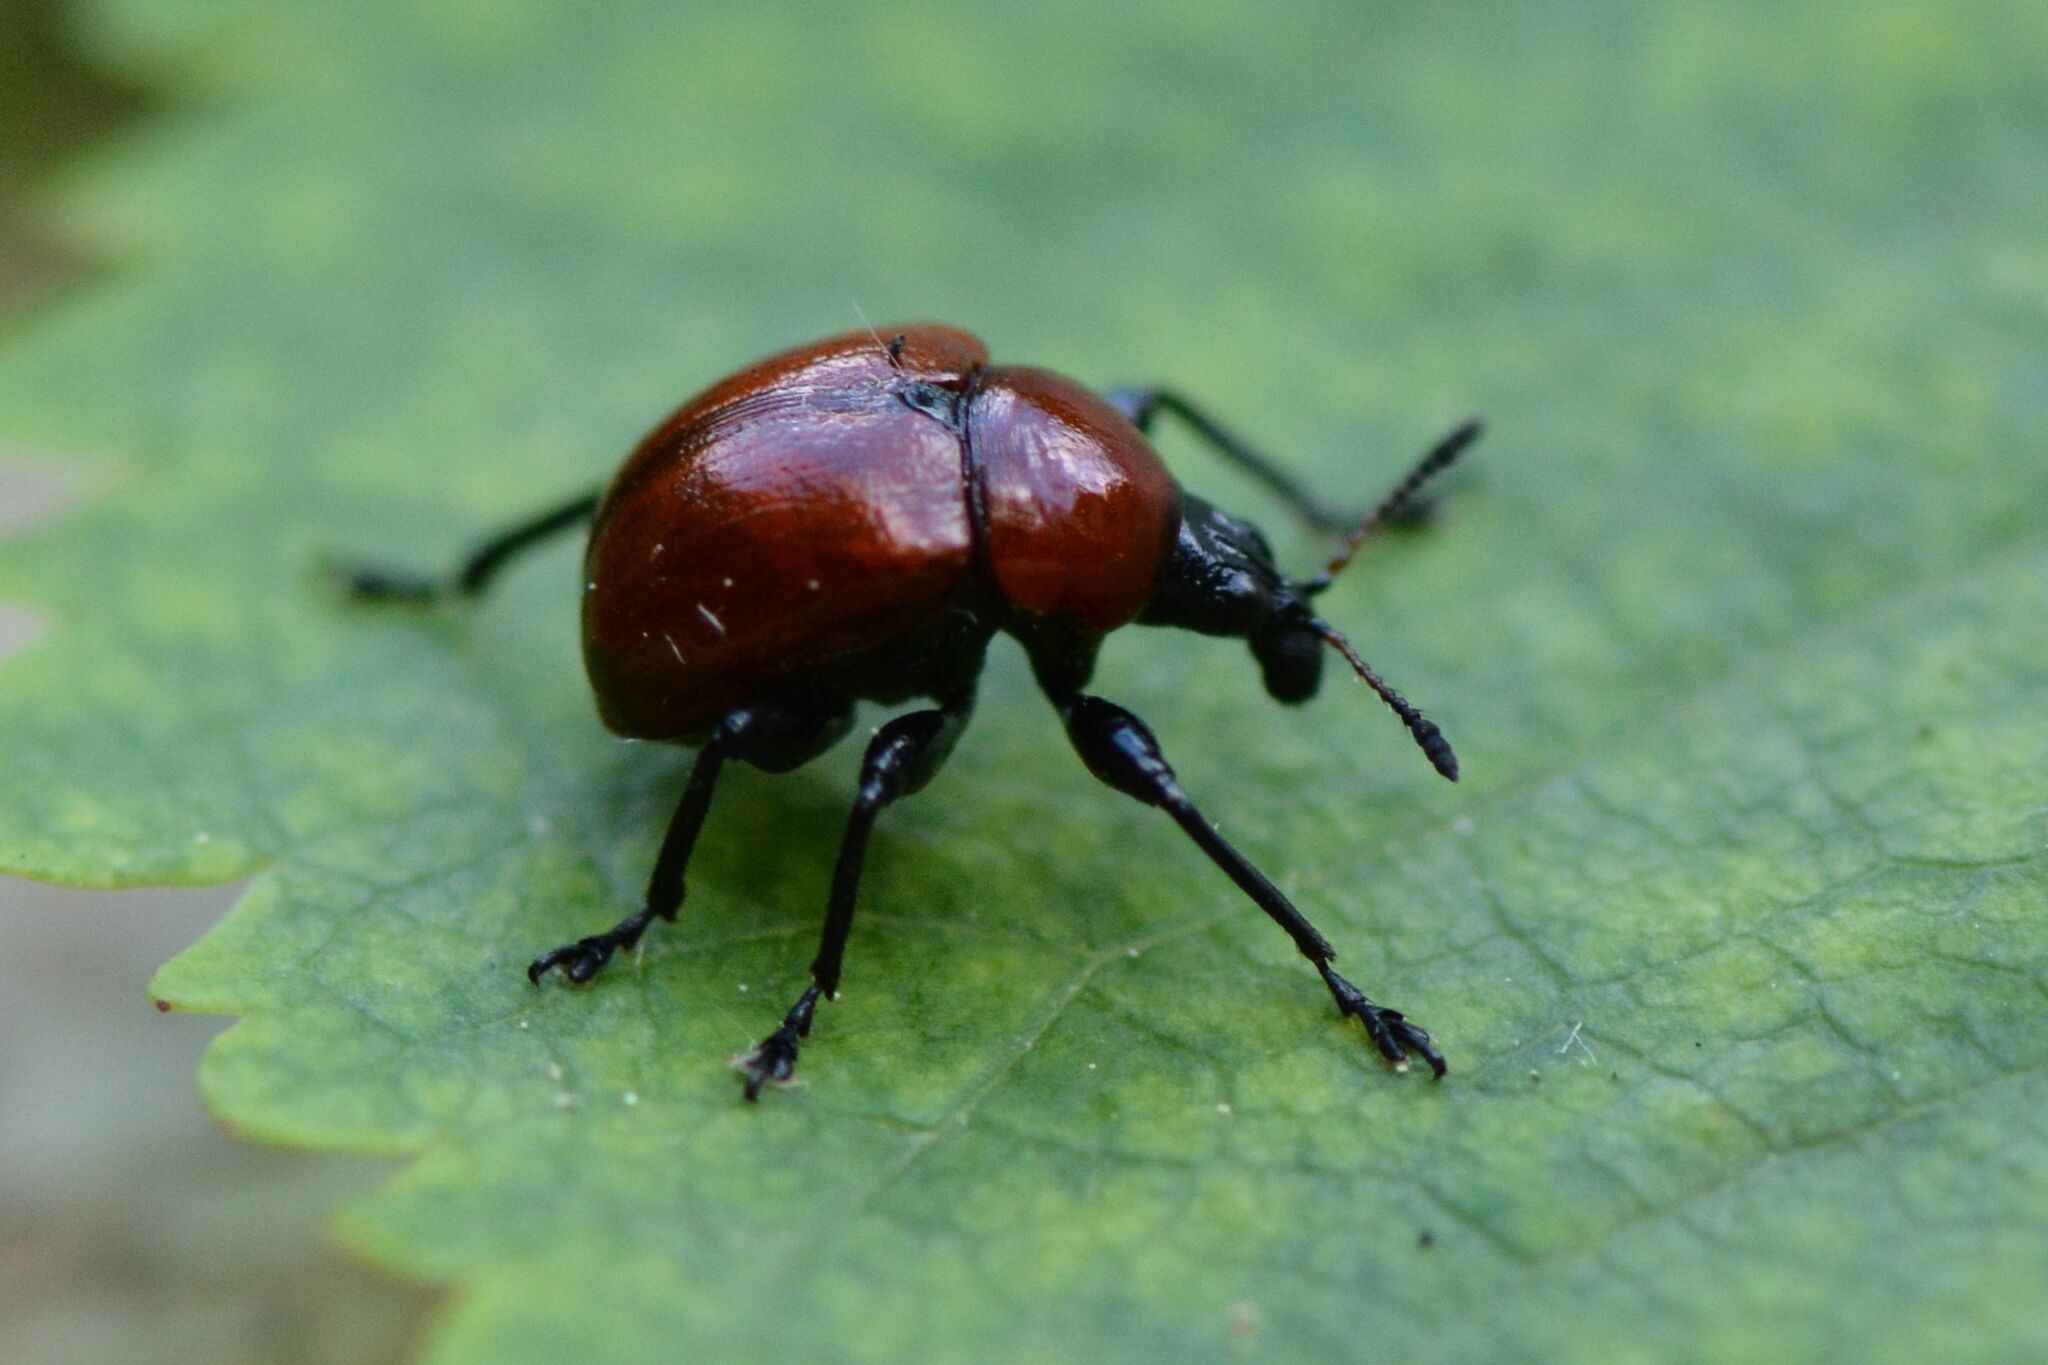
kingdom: Animalia
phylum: Arthropoda
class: Insecta
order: Coleoptera
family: Attelabidae
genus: Attelabus
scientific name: Attelabus nitens
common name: Oak leaf-roller
